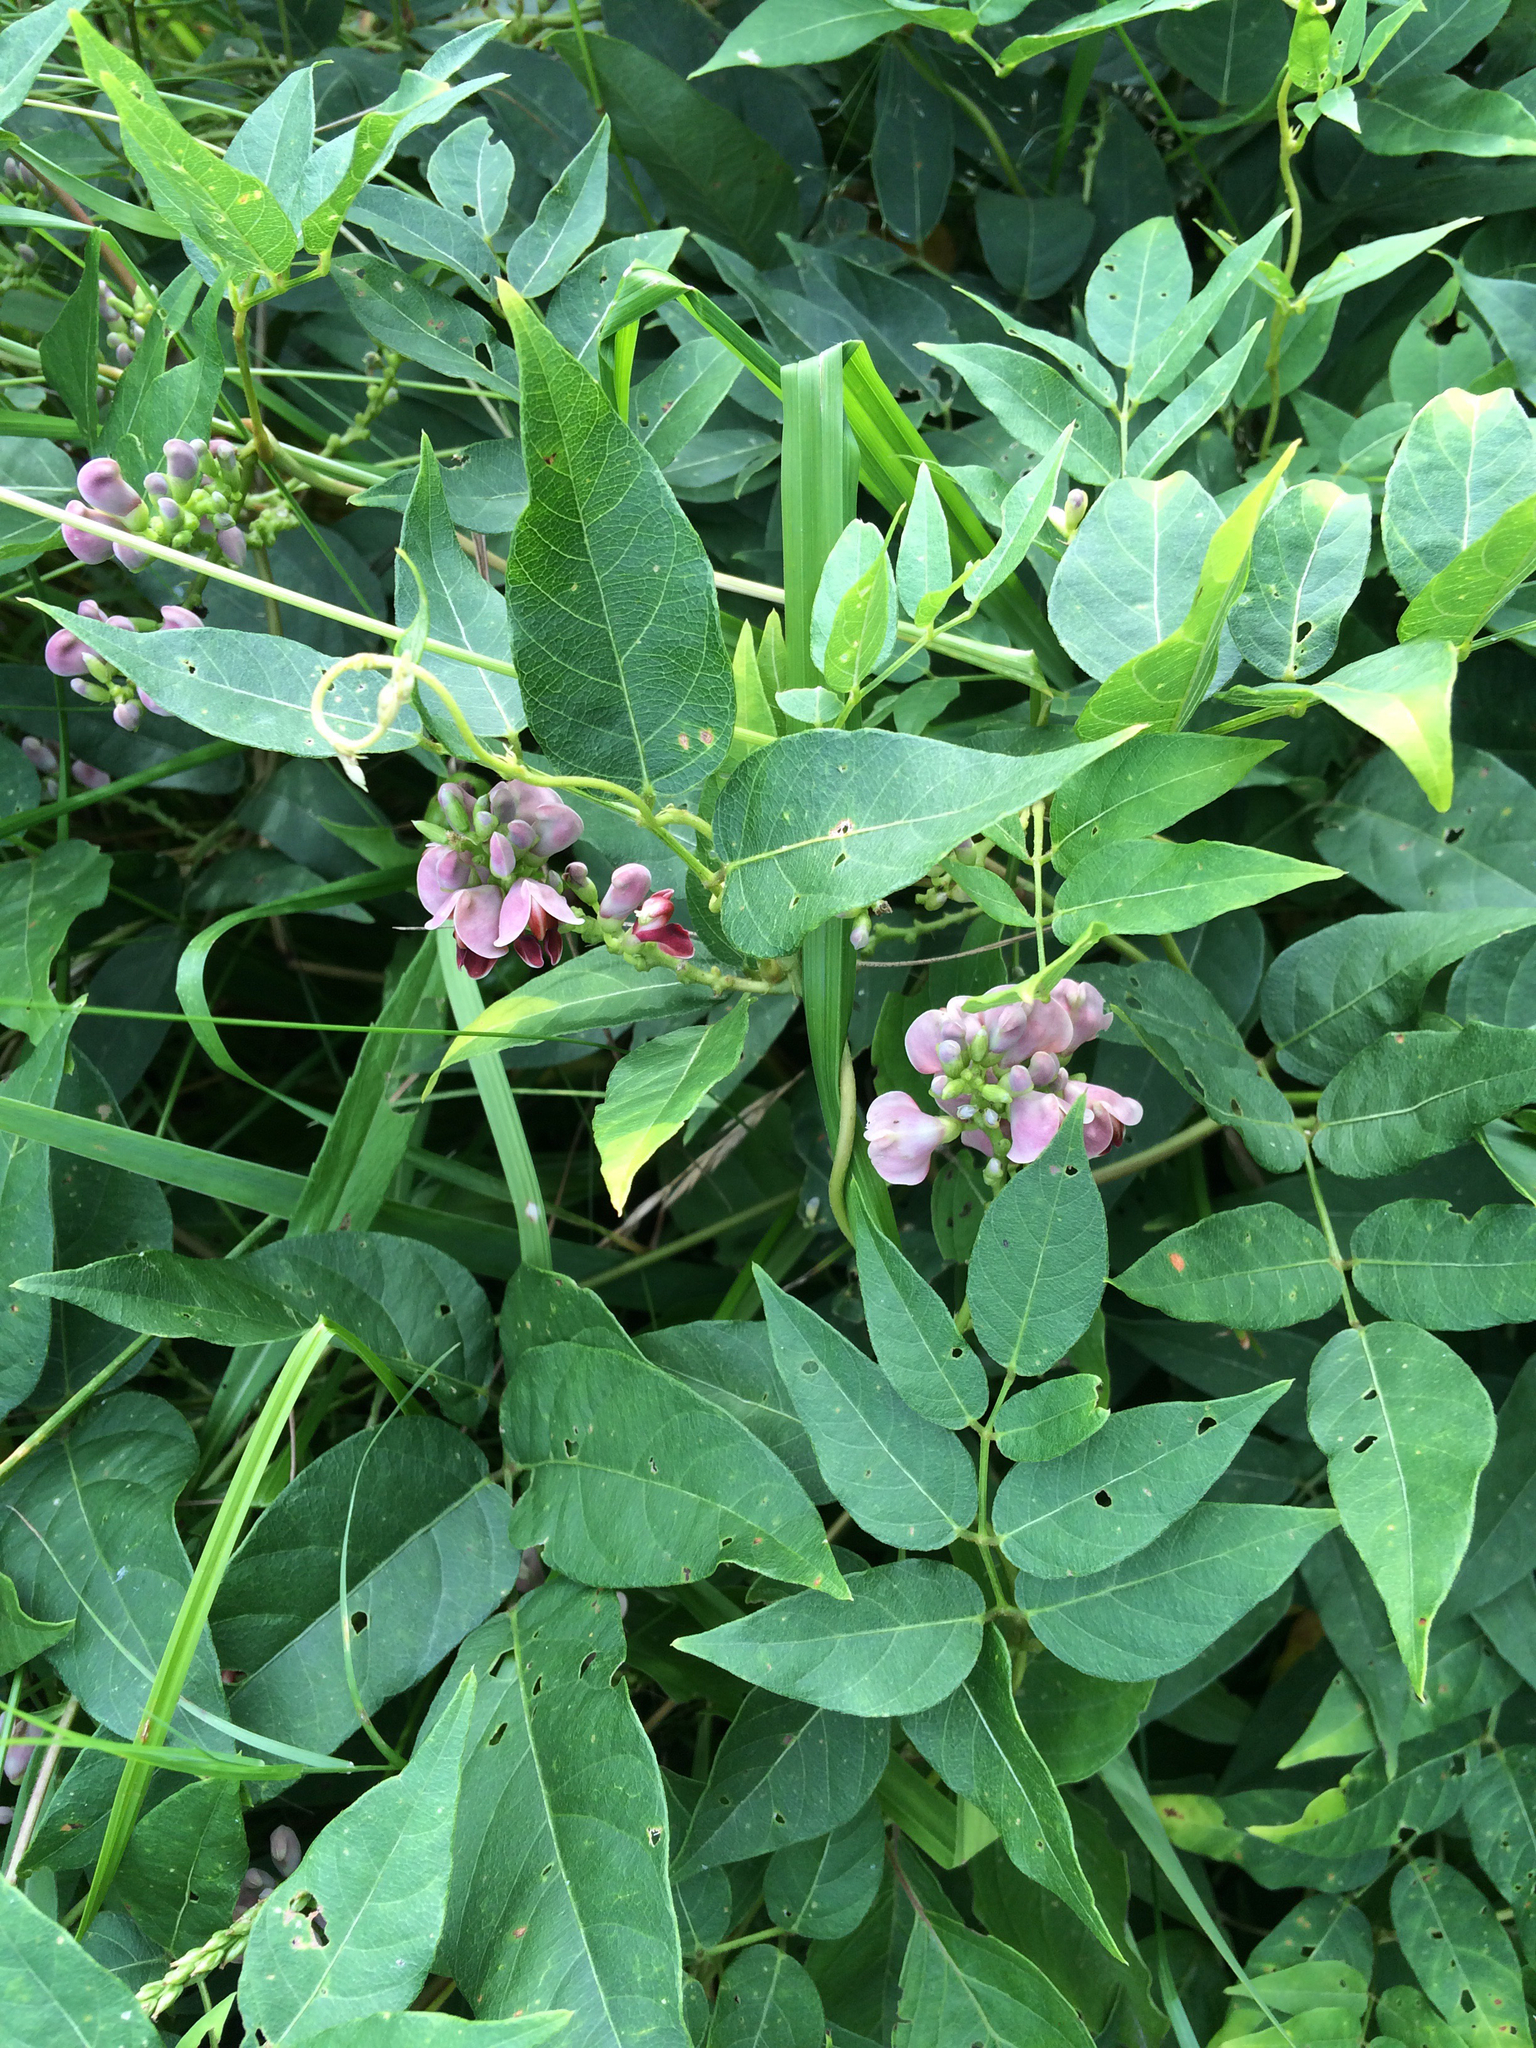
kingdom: Plantae
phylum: Tracheophyta
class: Magnoliopsida
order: Fabales
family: Fabaceae
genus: Apios
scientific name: Apios americana
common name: American potato-bean
